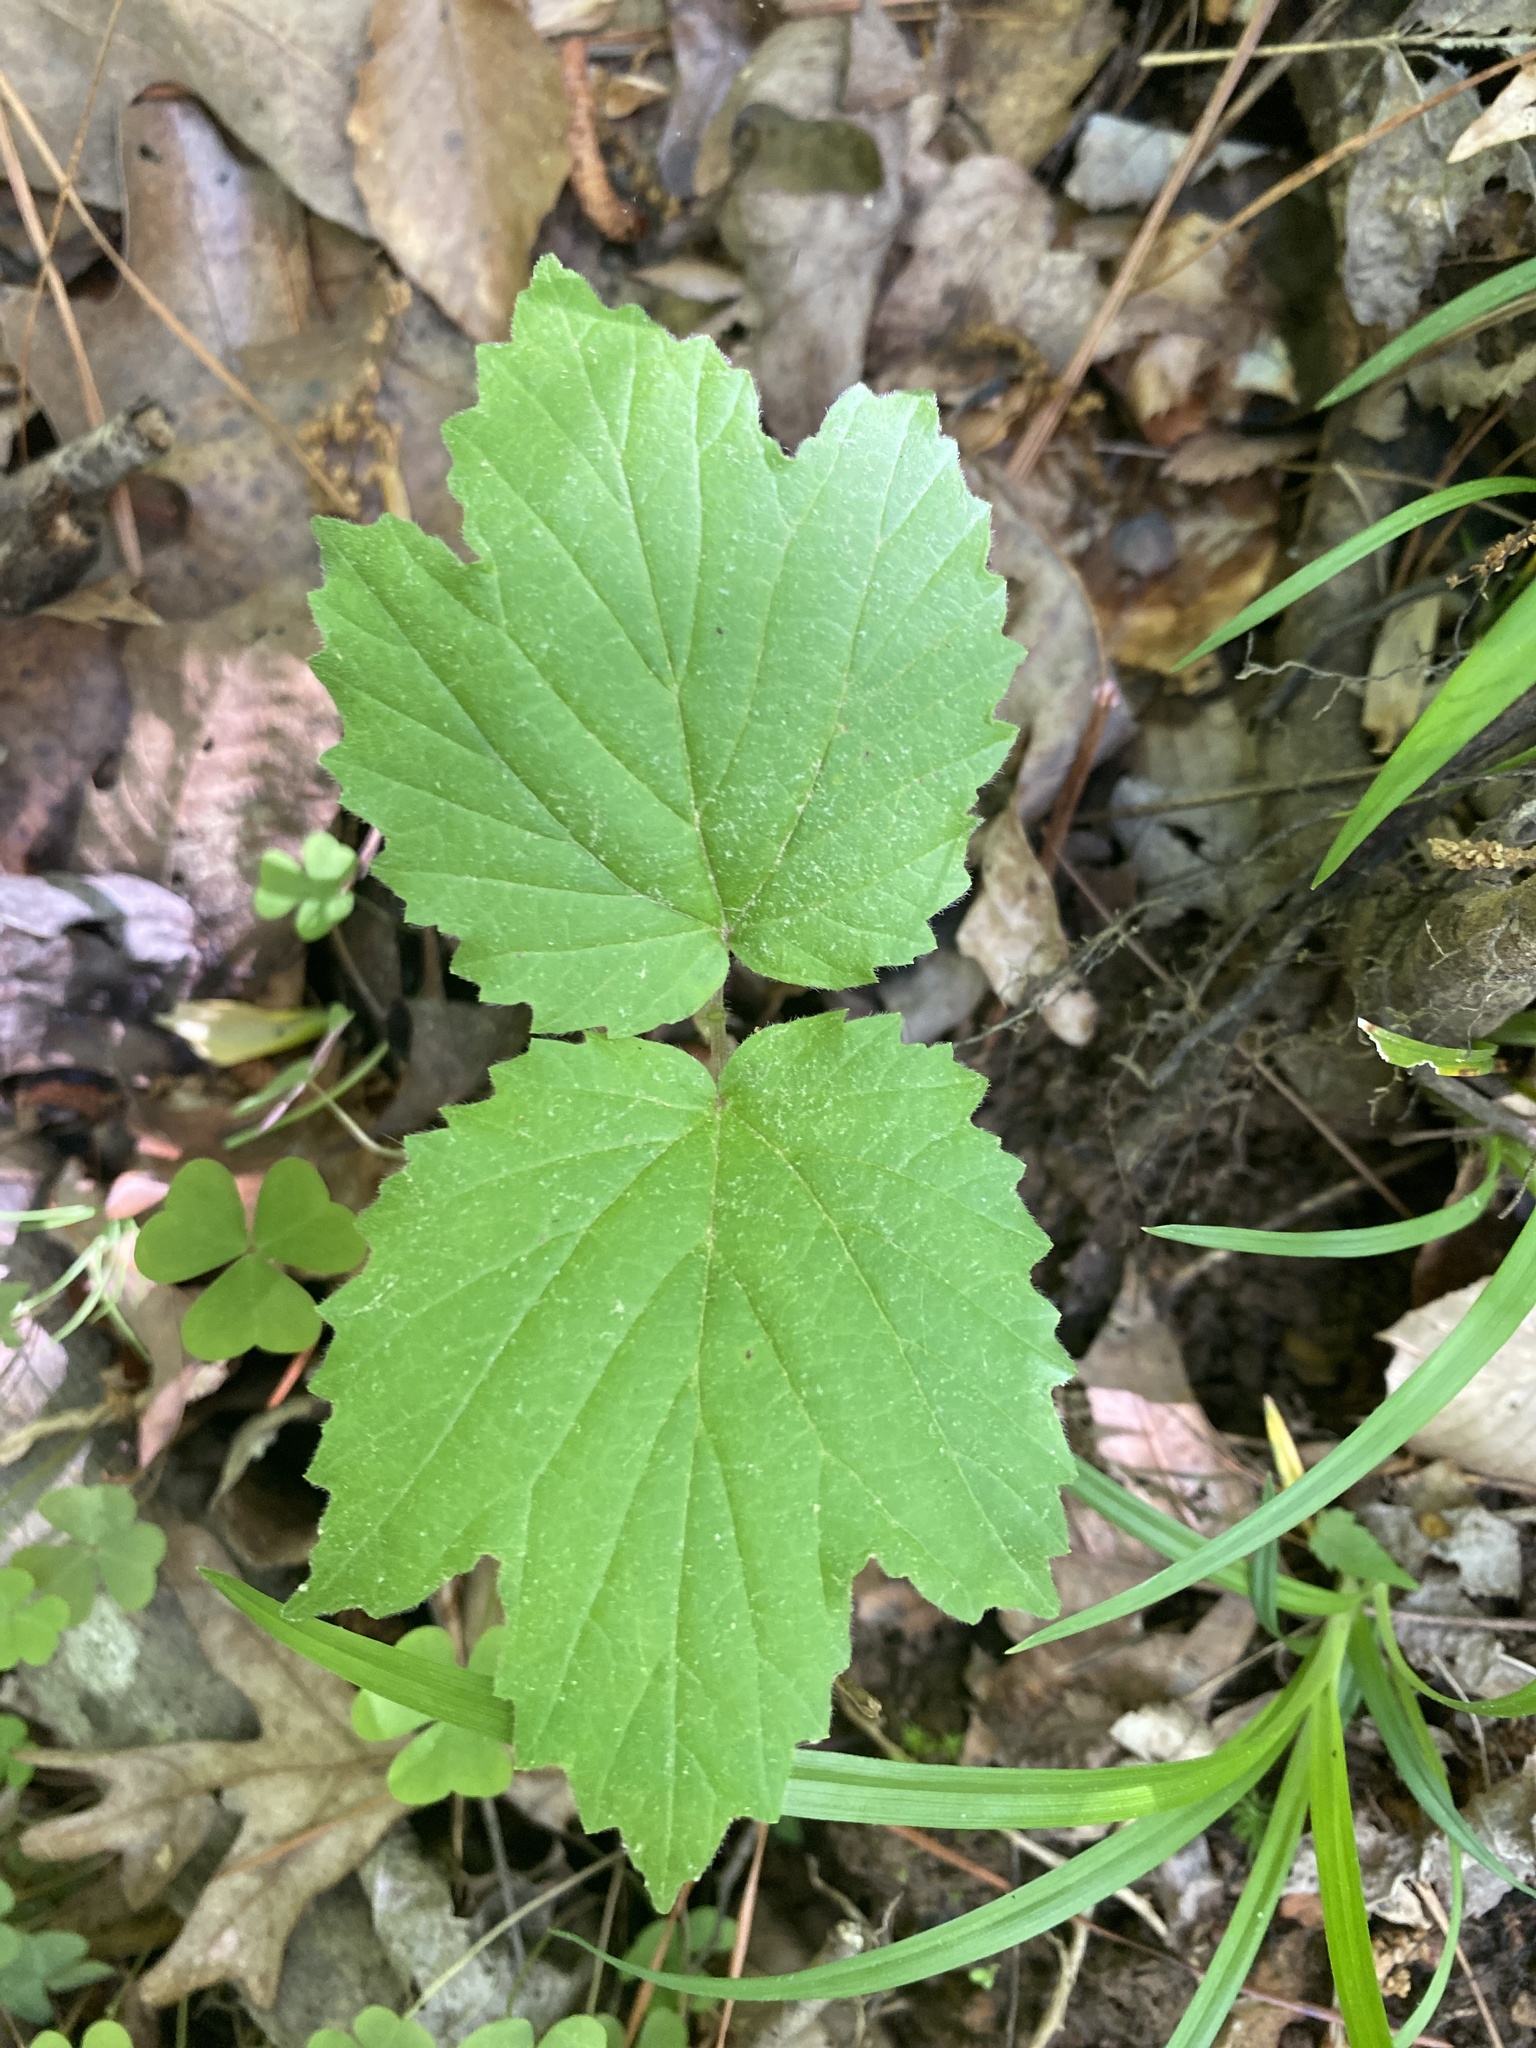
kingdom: Plantae
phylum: Tracheophyta
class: Magnoliopsida
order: Dipsacales
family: Viburnaceae
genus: Viburnum
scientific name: Viburnum acerifolium
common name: Dockmackie
